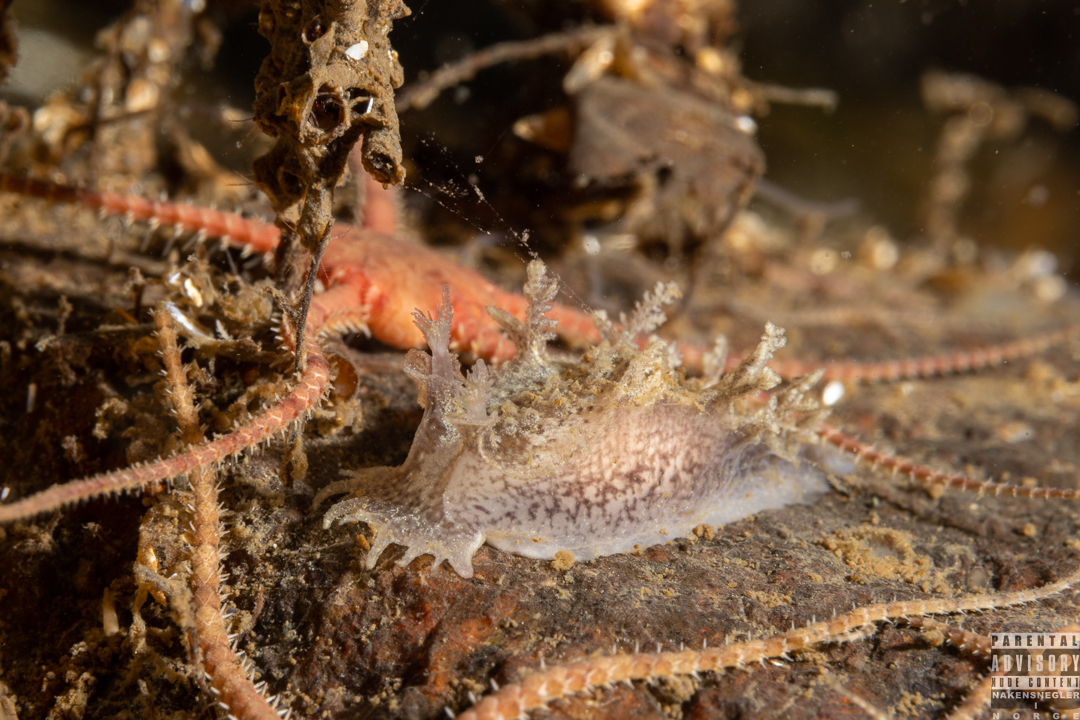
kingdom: Animalia
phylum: Mollusca
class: Gastropoda
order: Nudibranchia
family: Tritoniidae
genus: Duvaucelia
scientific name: Duvaucelia plebeia
